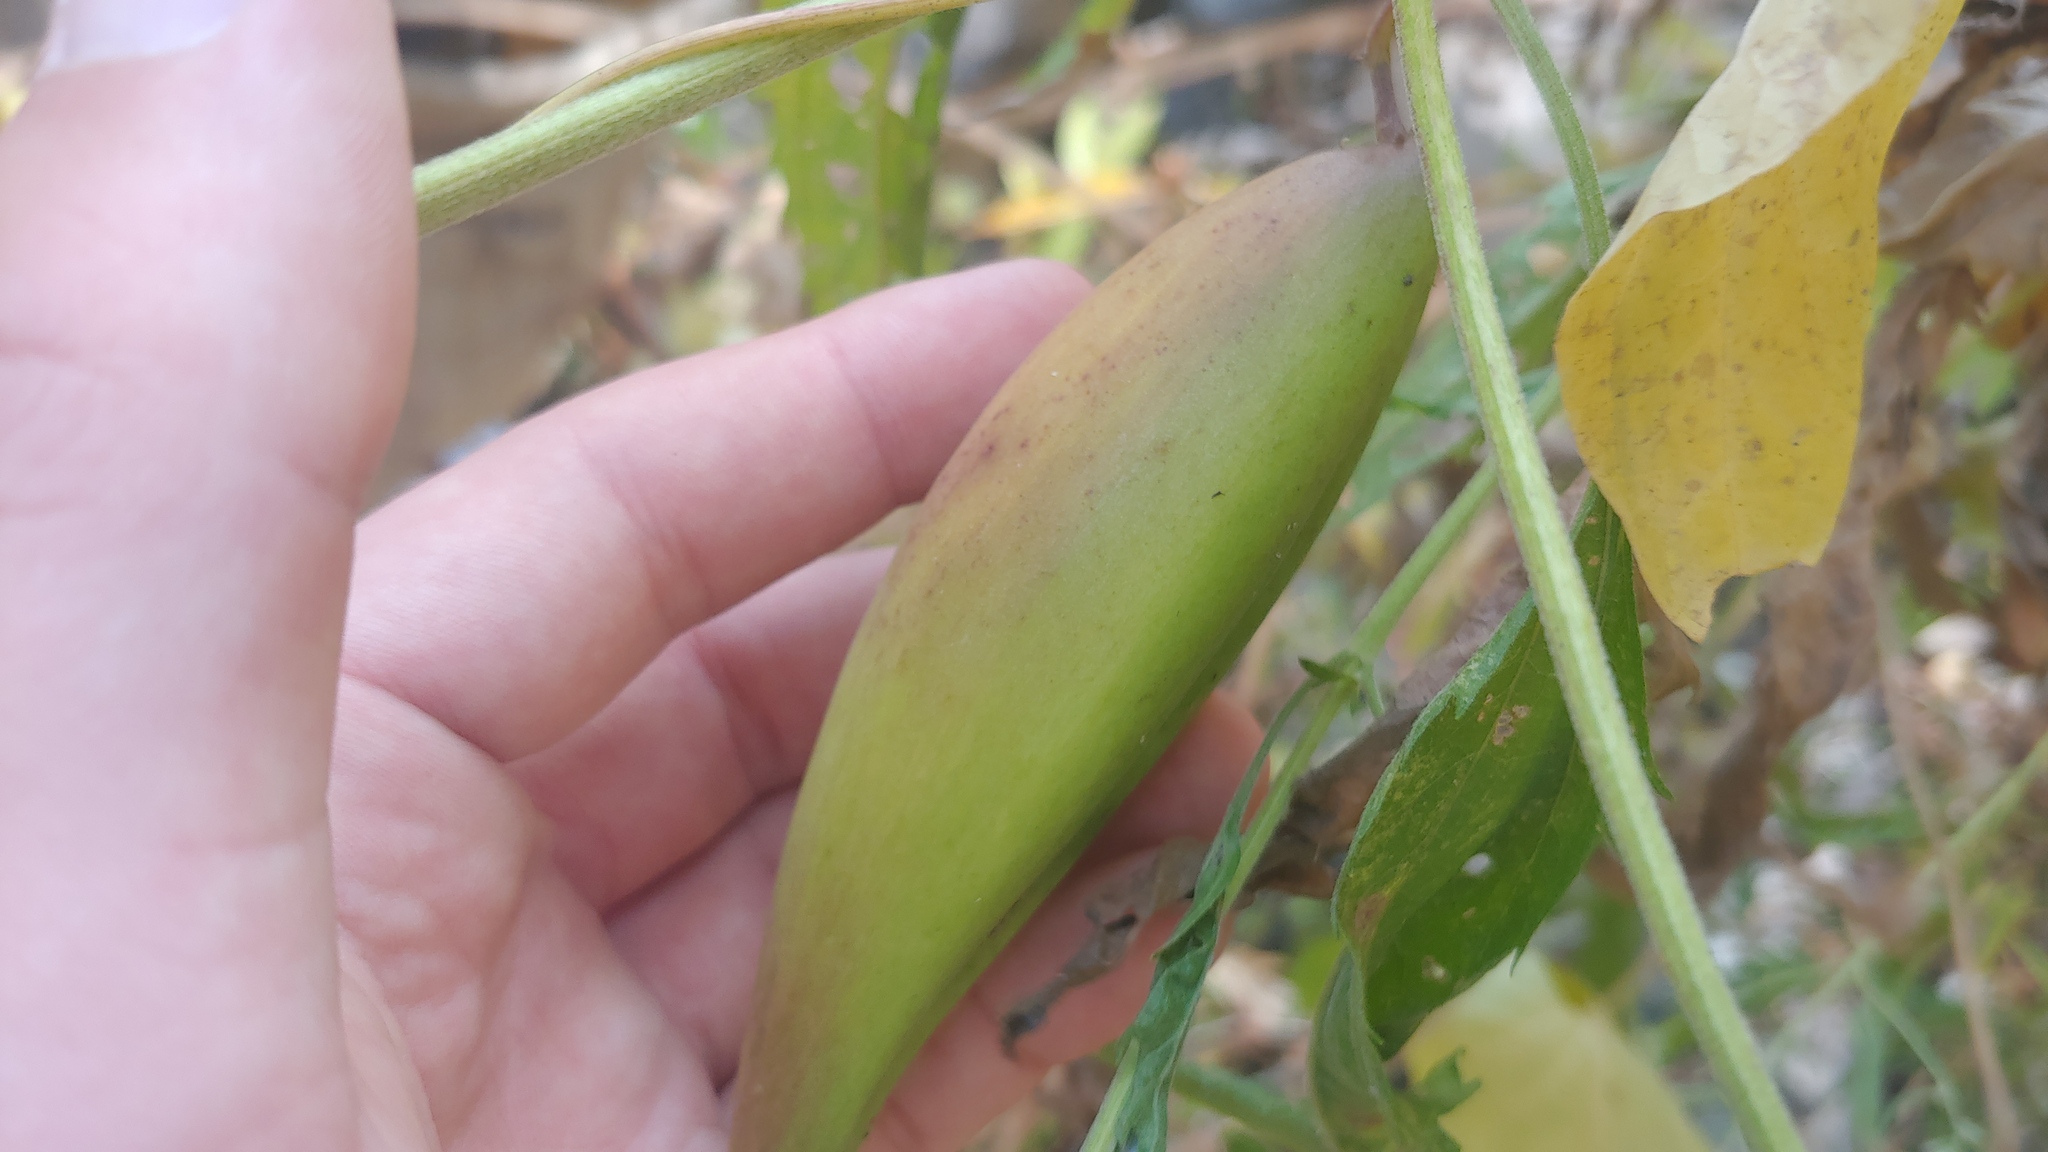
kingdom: Plantae
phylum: Tracheophyta
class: Magnoliopsida
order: Gentianales
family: Apocynaceae
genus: Cynanchum
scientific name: Cynanchum laeve
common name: Sandvine
